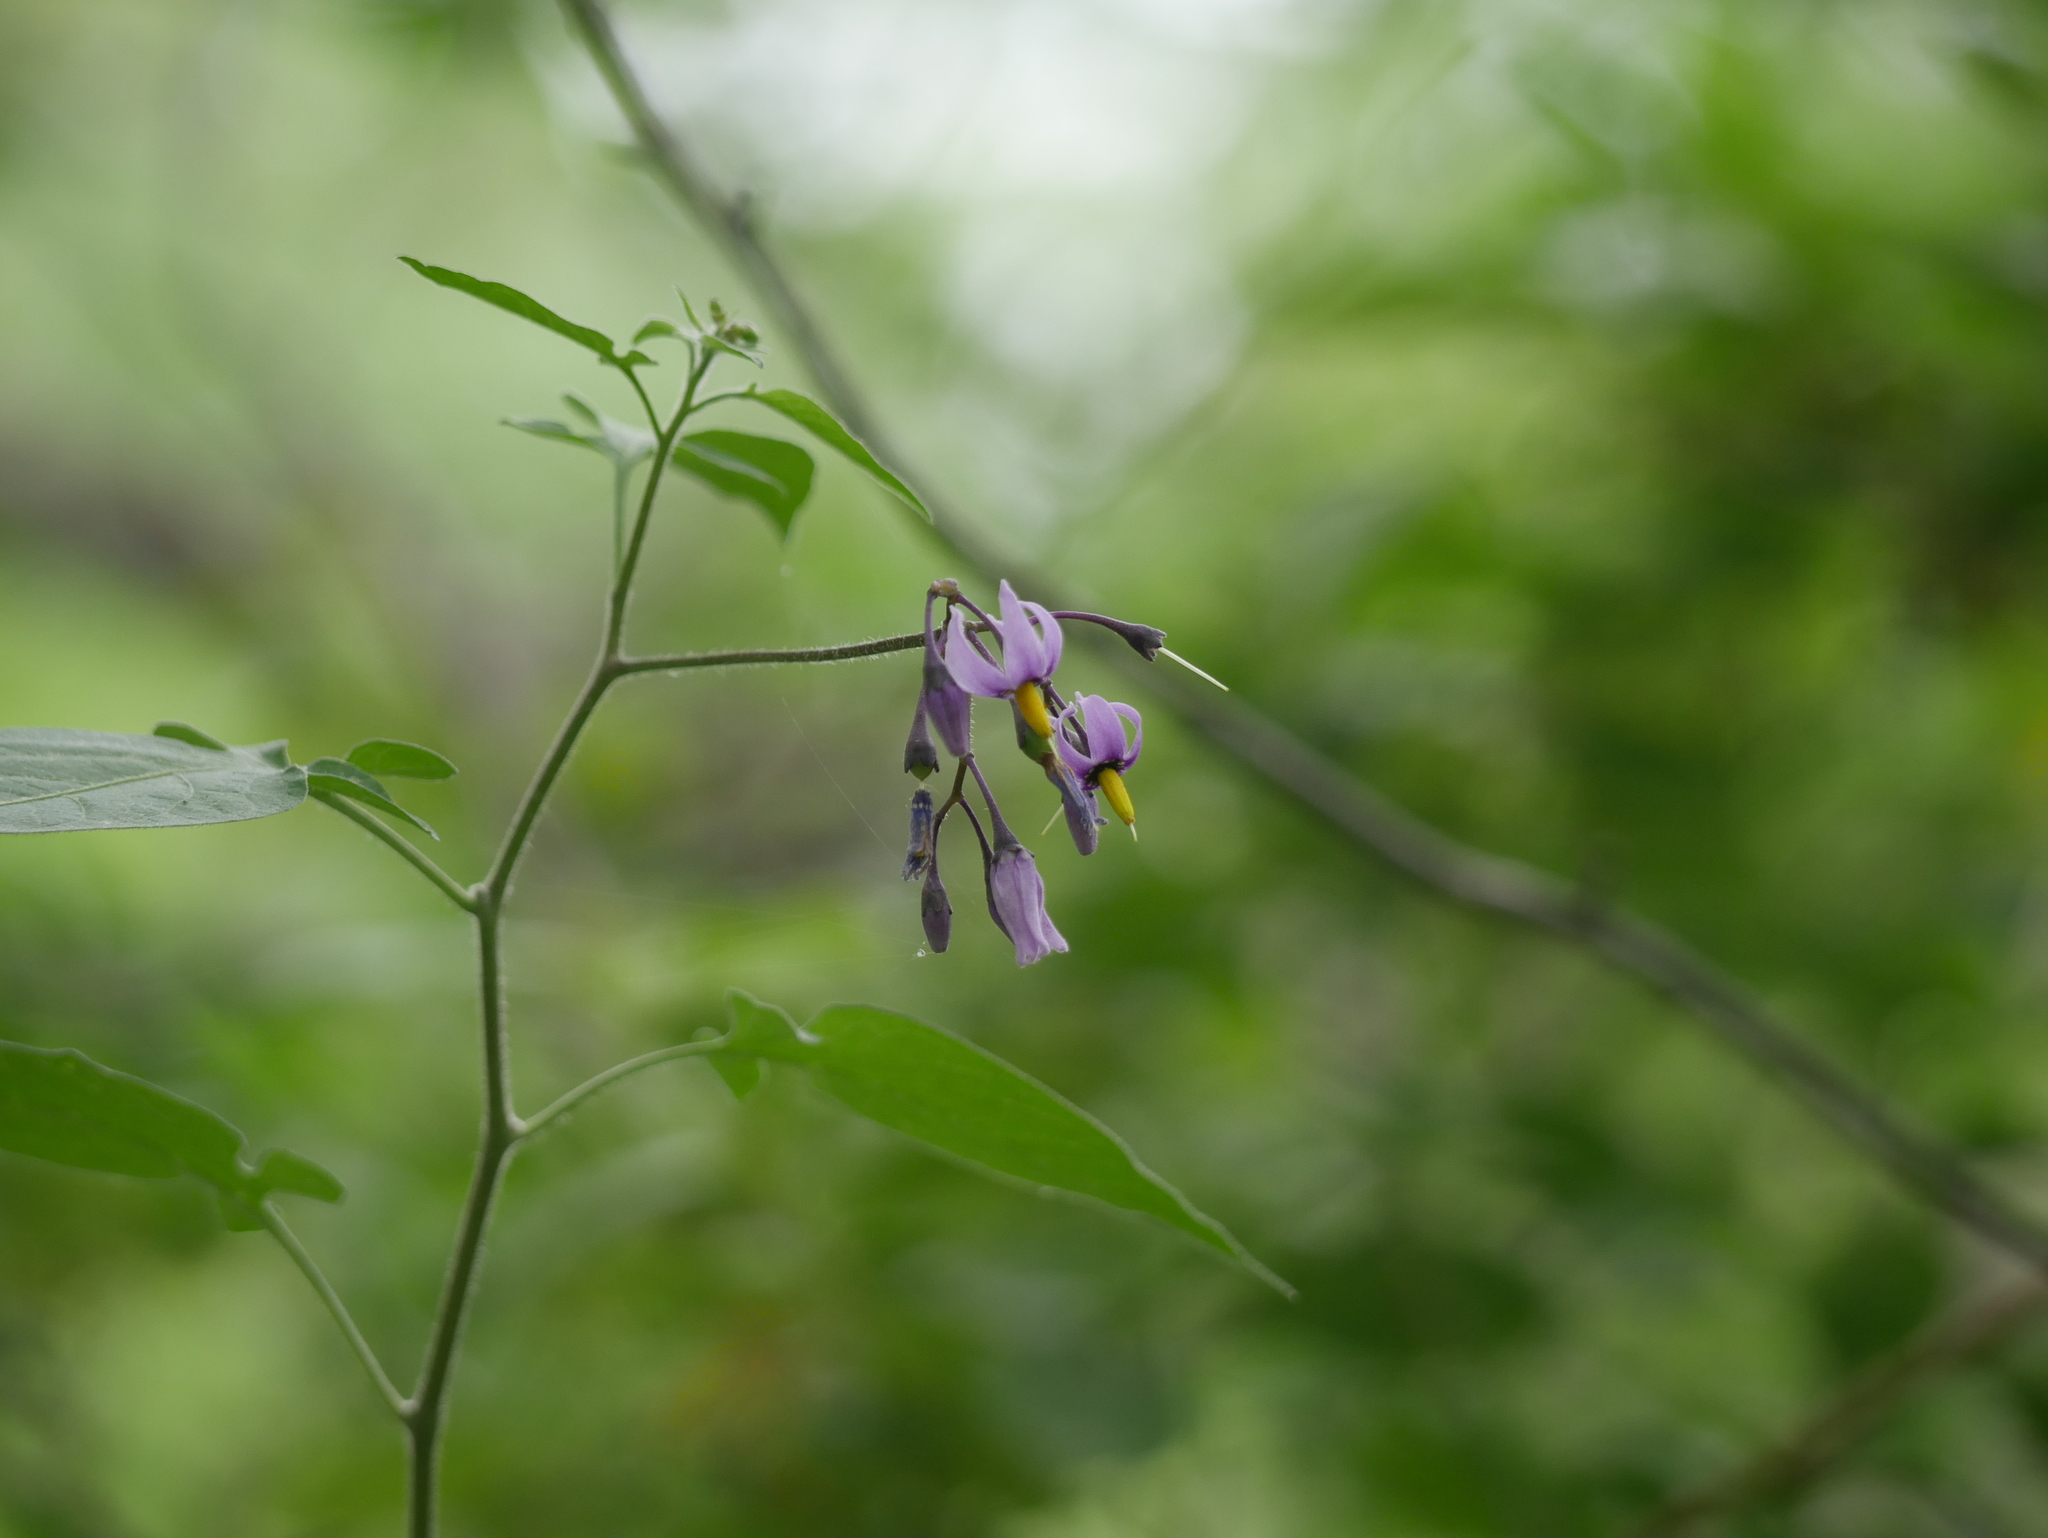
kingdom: Plantae
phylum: Tracheophyta
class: Magnoliopsida
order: Solanales
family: Solanaceae
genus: Solanum
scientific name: Solanum dulcamara
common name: Climbing nightshade
